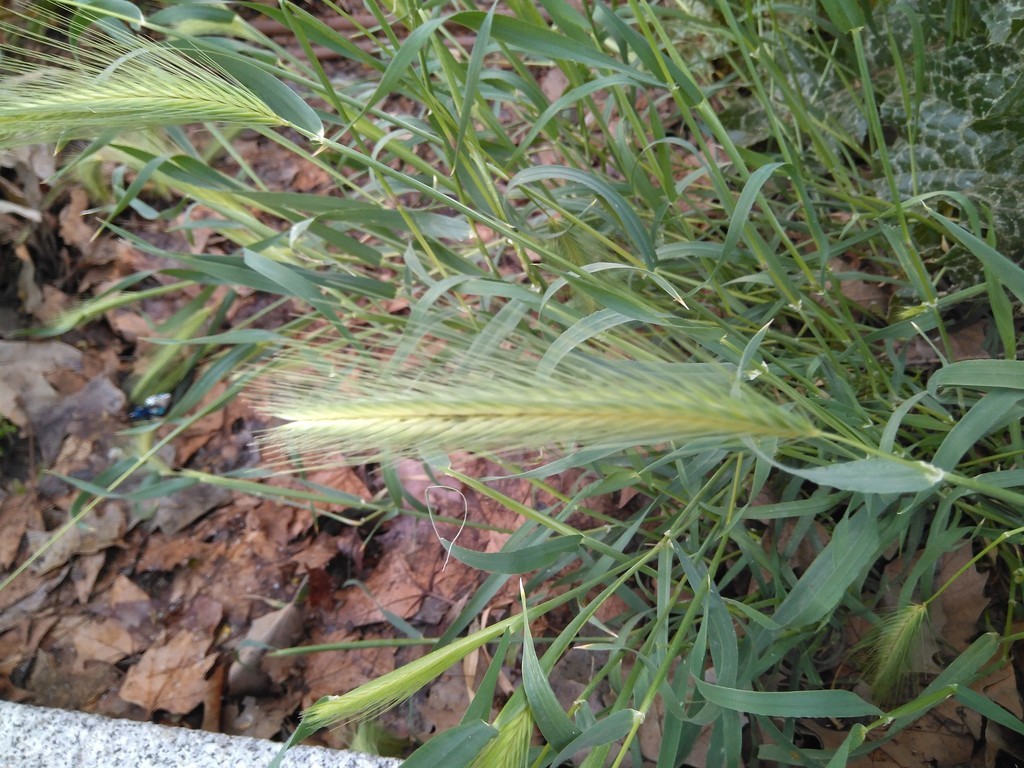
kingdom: Plantae
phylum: Tracheophyta
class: Liliopsida
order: Poales
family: Poaceae
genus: Hordeum
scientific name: Hordeum murinum
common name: Wall barley
